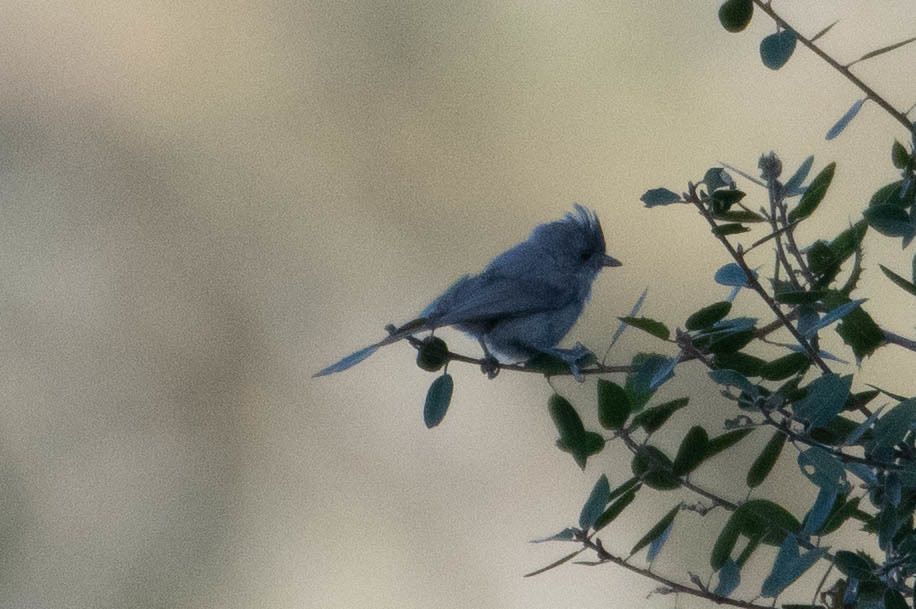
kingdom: Animalia
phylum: Chordata
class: Aves
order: Passeriformes
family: Paridae
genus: Baeolophus
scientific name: Baeolophus inornatus
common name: Oak titmouse
